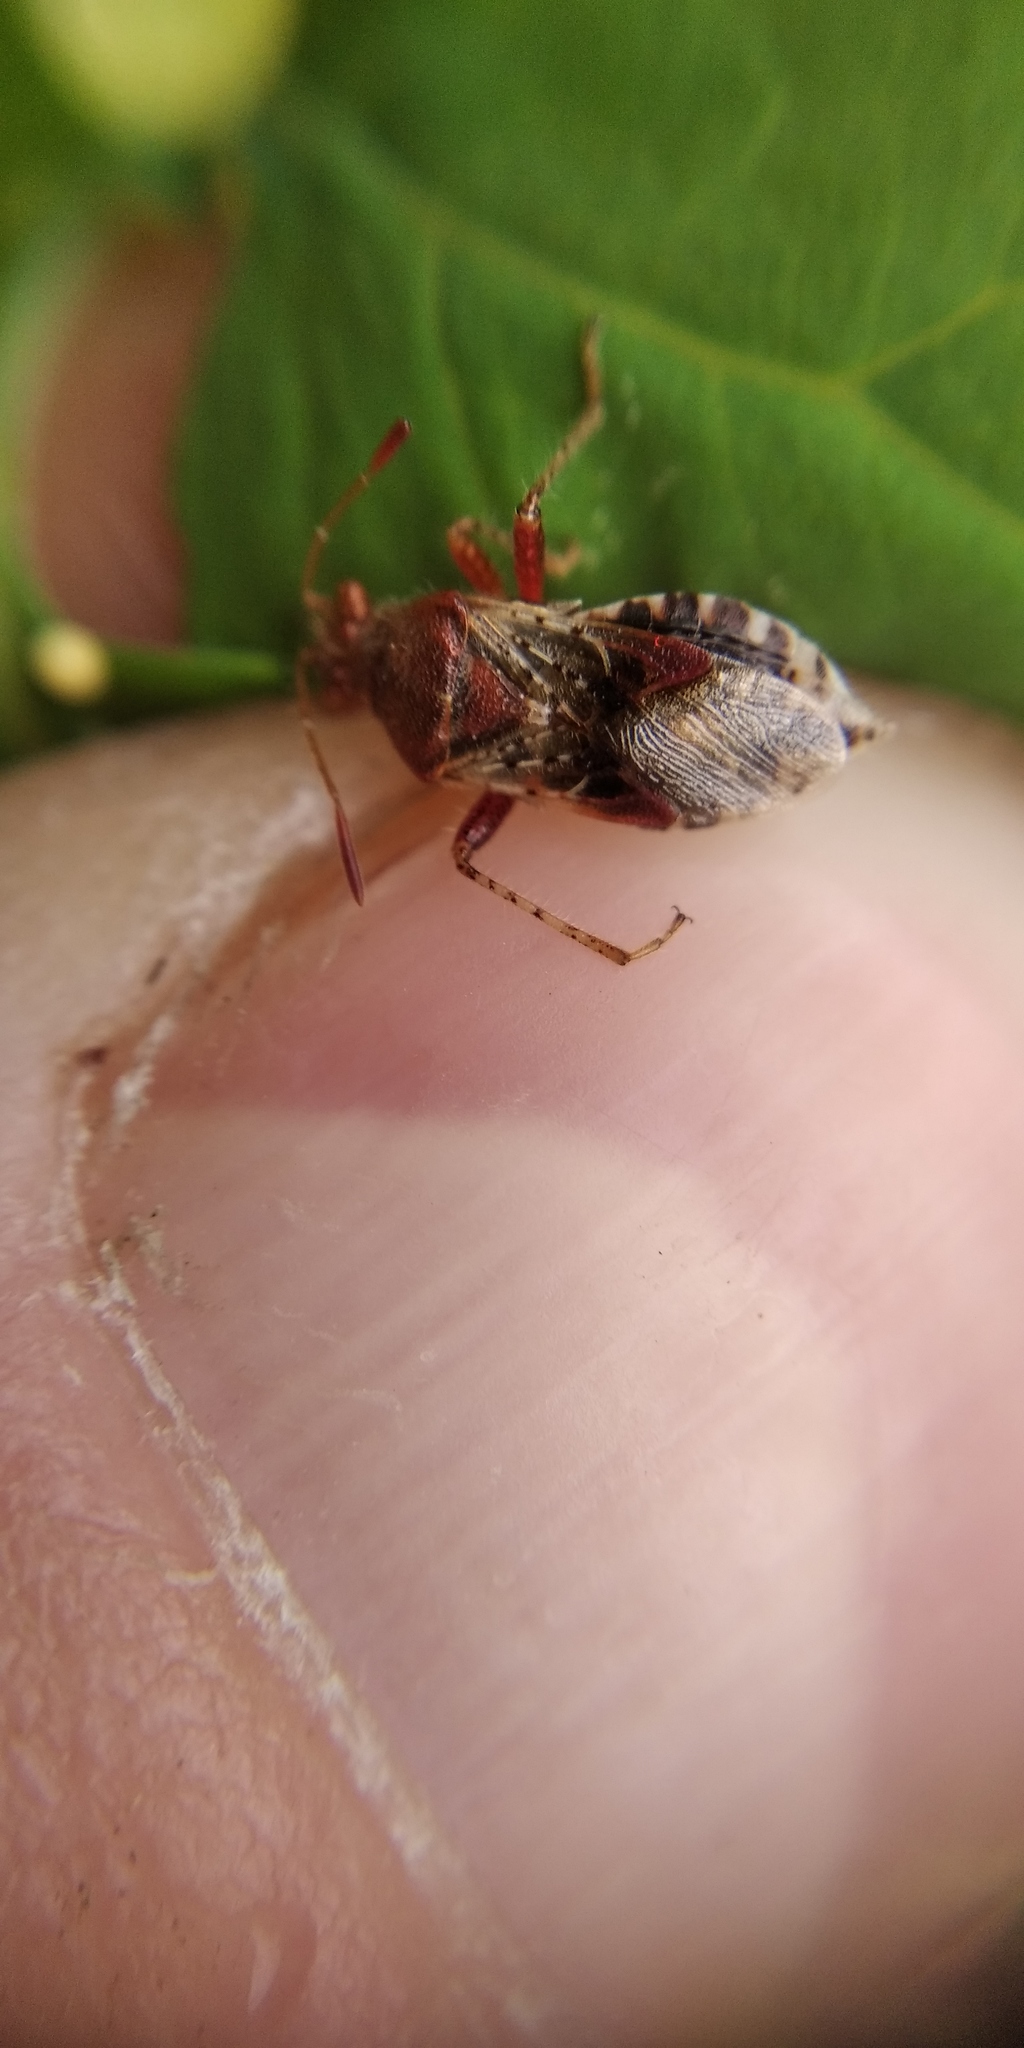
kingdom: Animalia
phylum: Arthropoda
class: Insecta
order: Hemiptera
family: Rhopalidae
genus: Rhopalus
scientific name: Rhopalus subrufus
